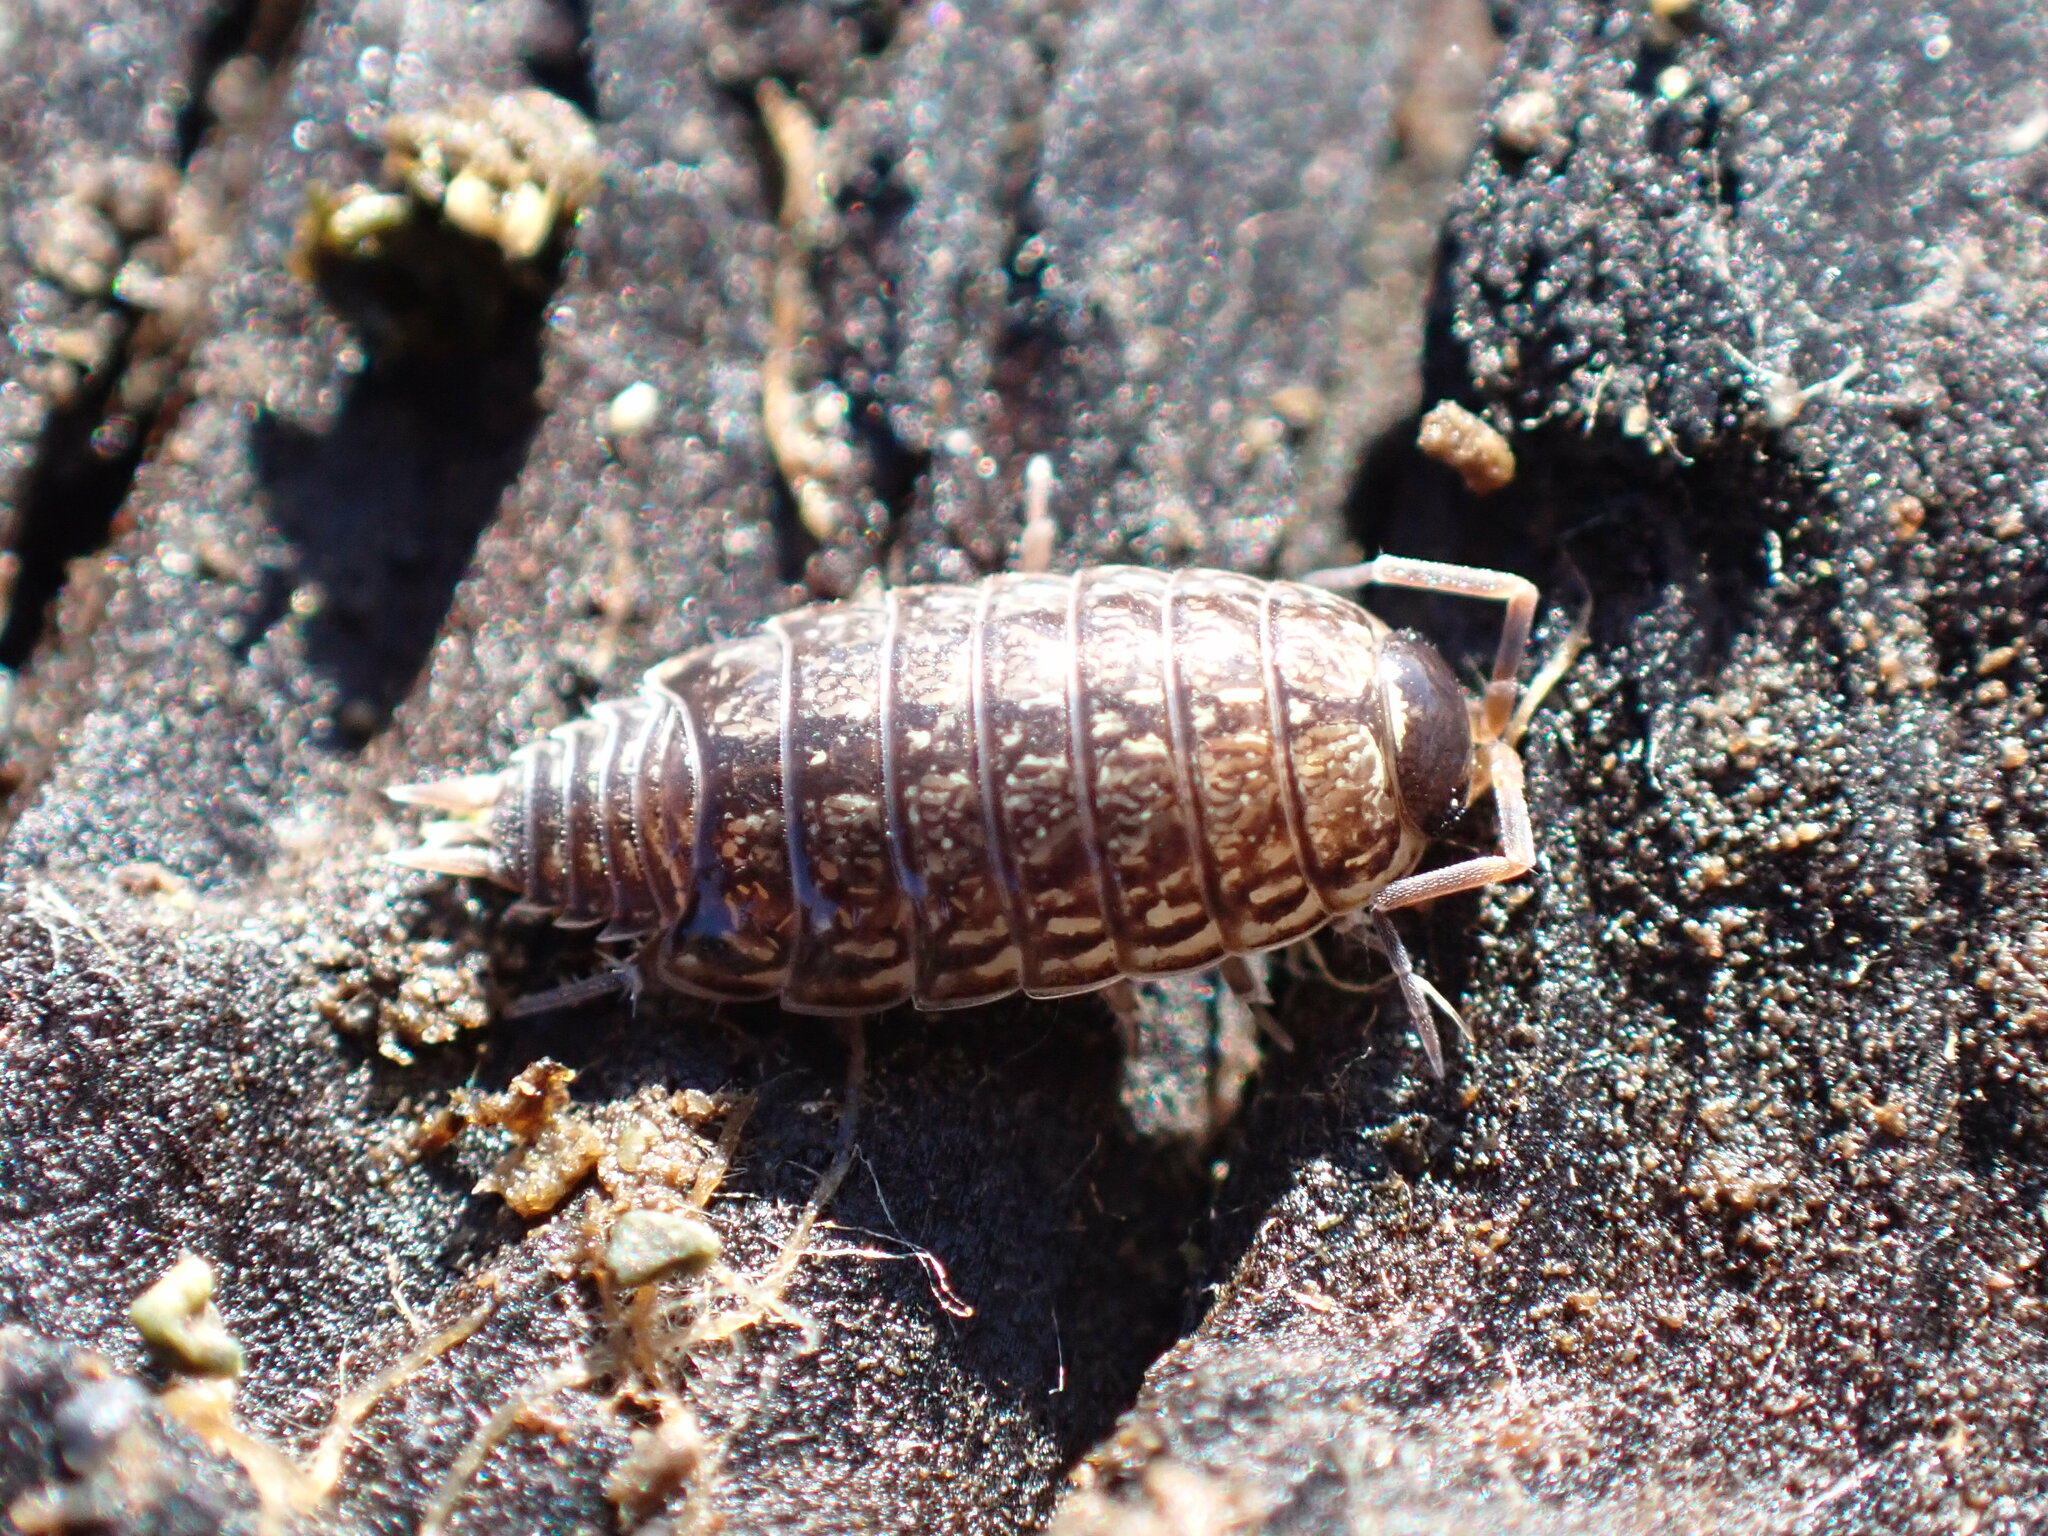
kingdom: Animalia
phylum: Arthropoda
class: Malacostraca
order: Isopoda
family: Philosciidae
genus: Philoscia
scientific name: Philoscia muscorum
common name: Common striped woodlouse
